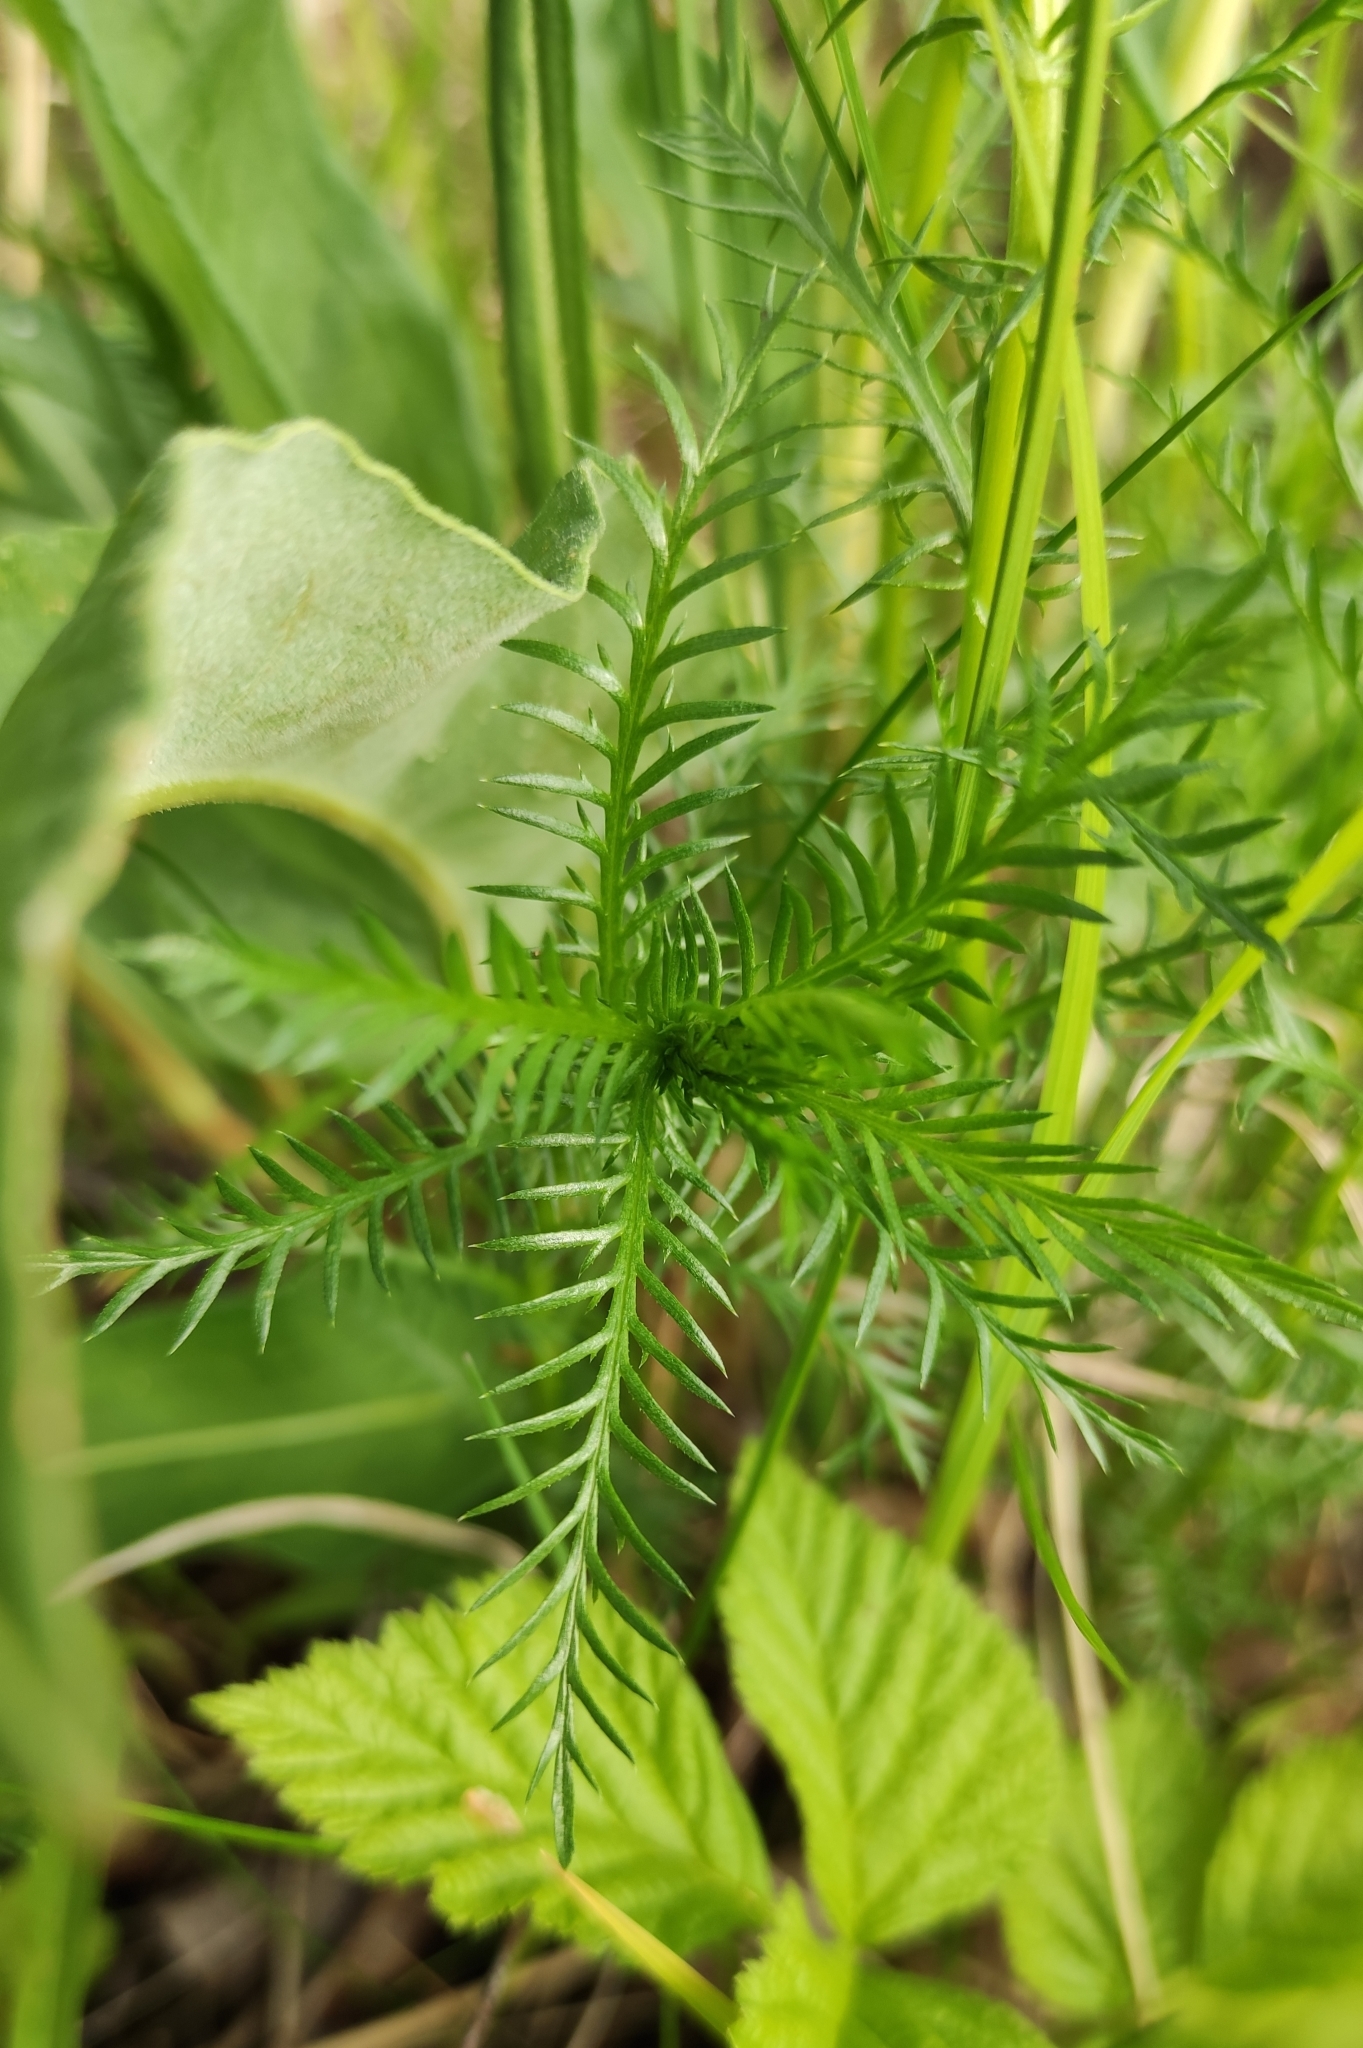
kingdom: Plantae
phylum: Tracheophyta
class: Magnoliopsida
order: Asterales
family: Asteraceae
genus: Achillea
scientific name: Achillea impatiens
